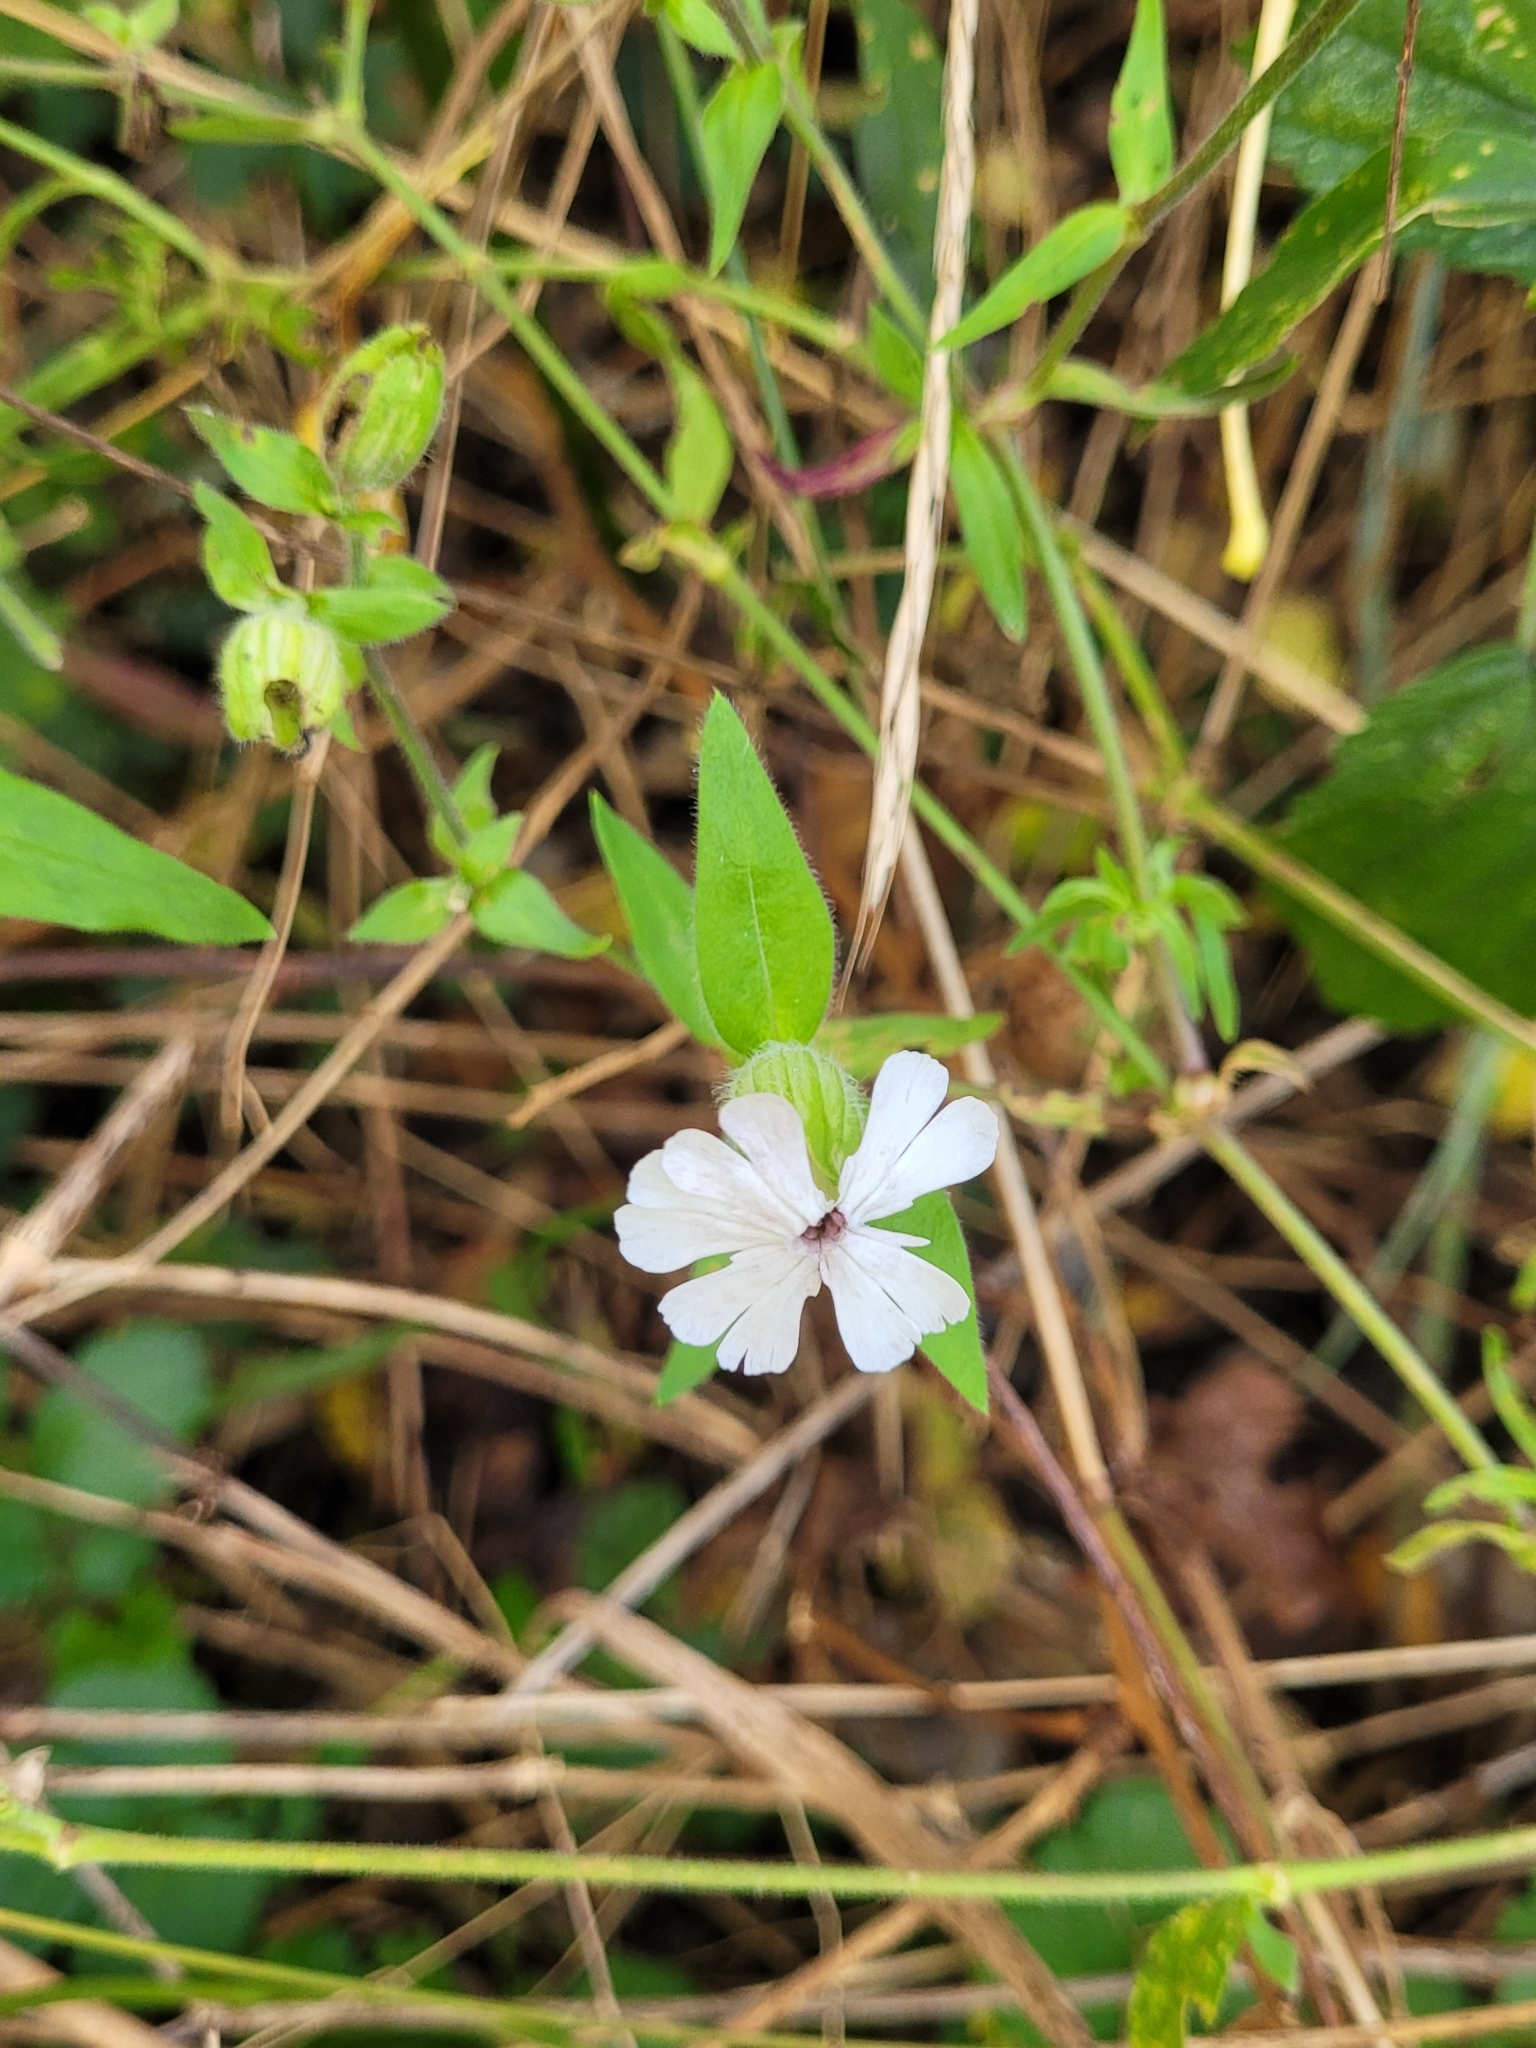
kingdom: Plantae
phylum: Tracheophyta
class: Magnoliopsida
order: Caryophyllales
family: Caryophyllaceae
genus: Silene
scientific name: Silene latifolia
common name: White campion
